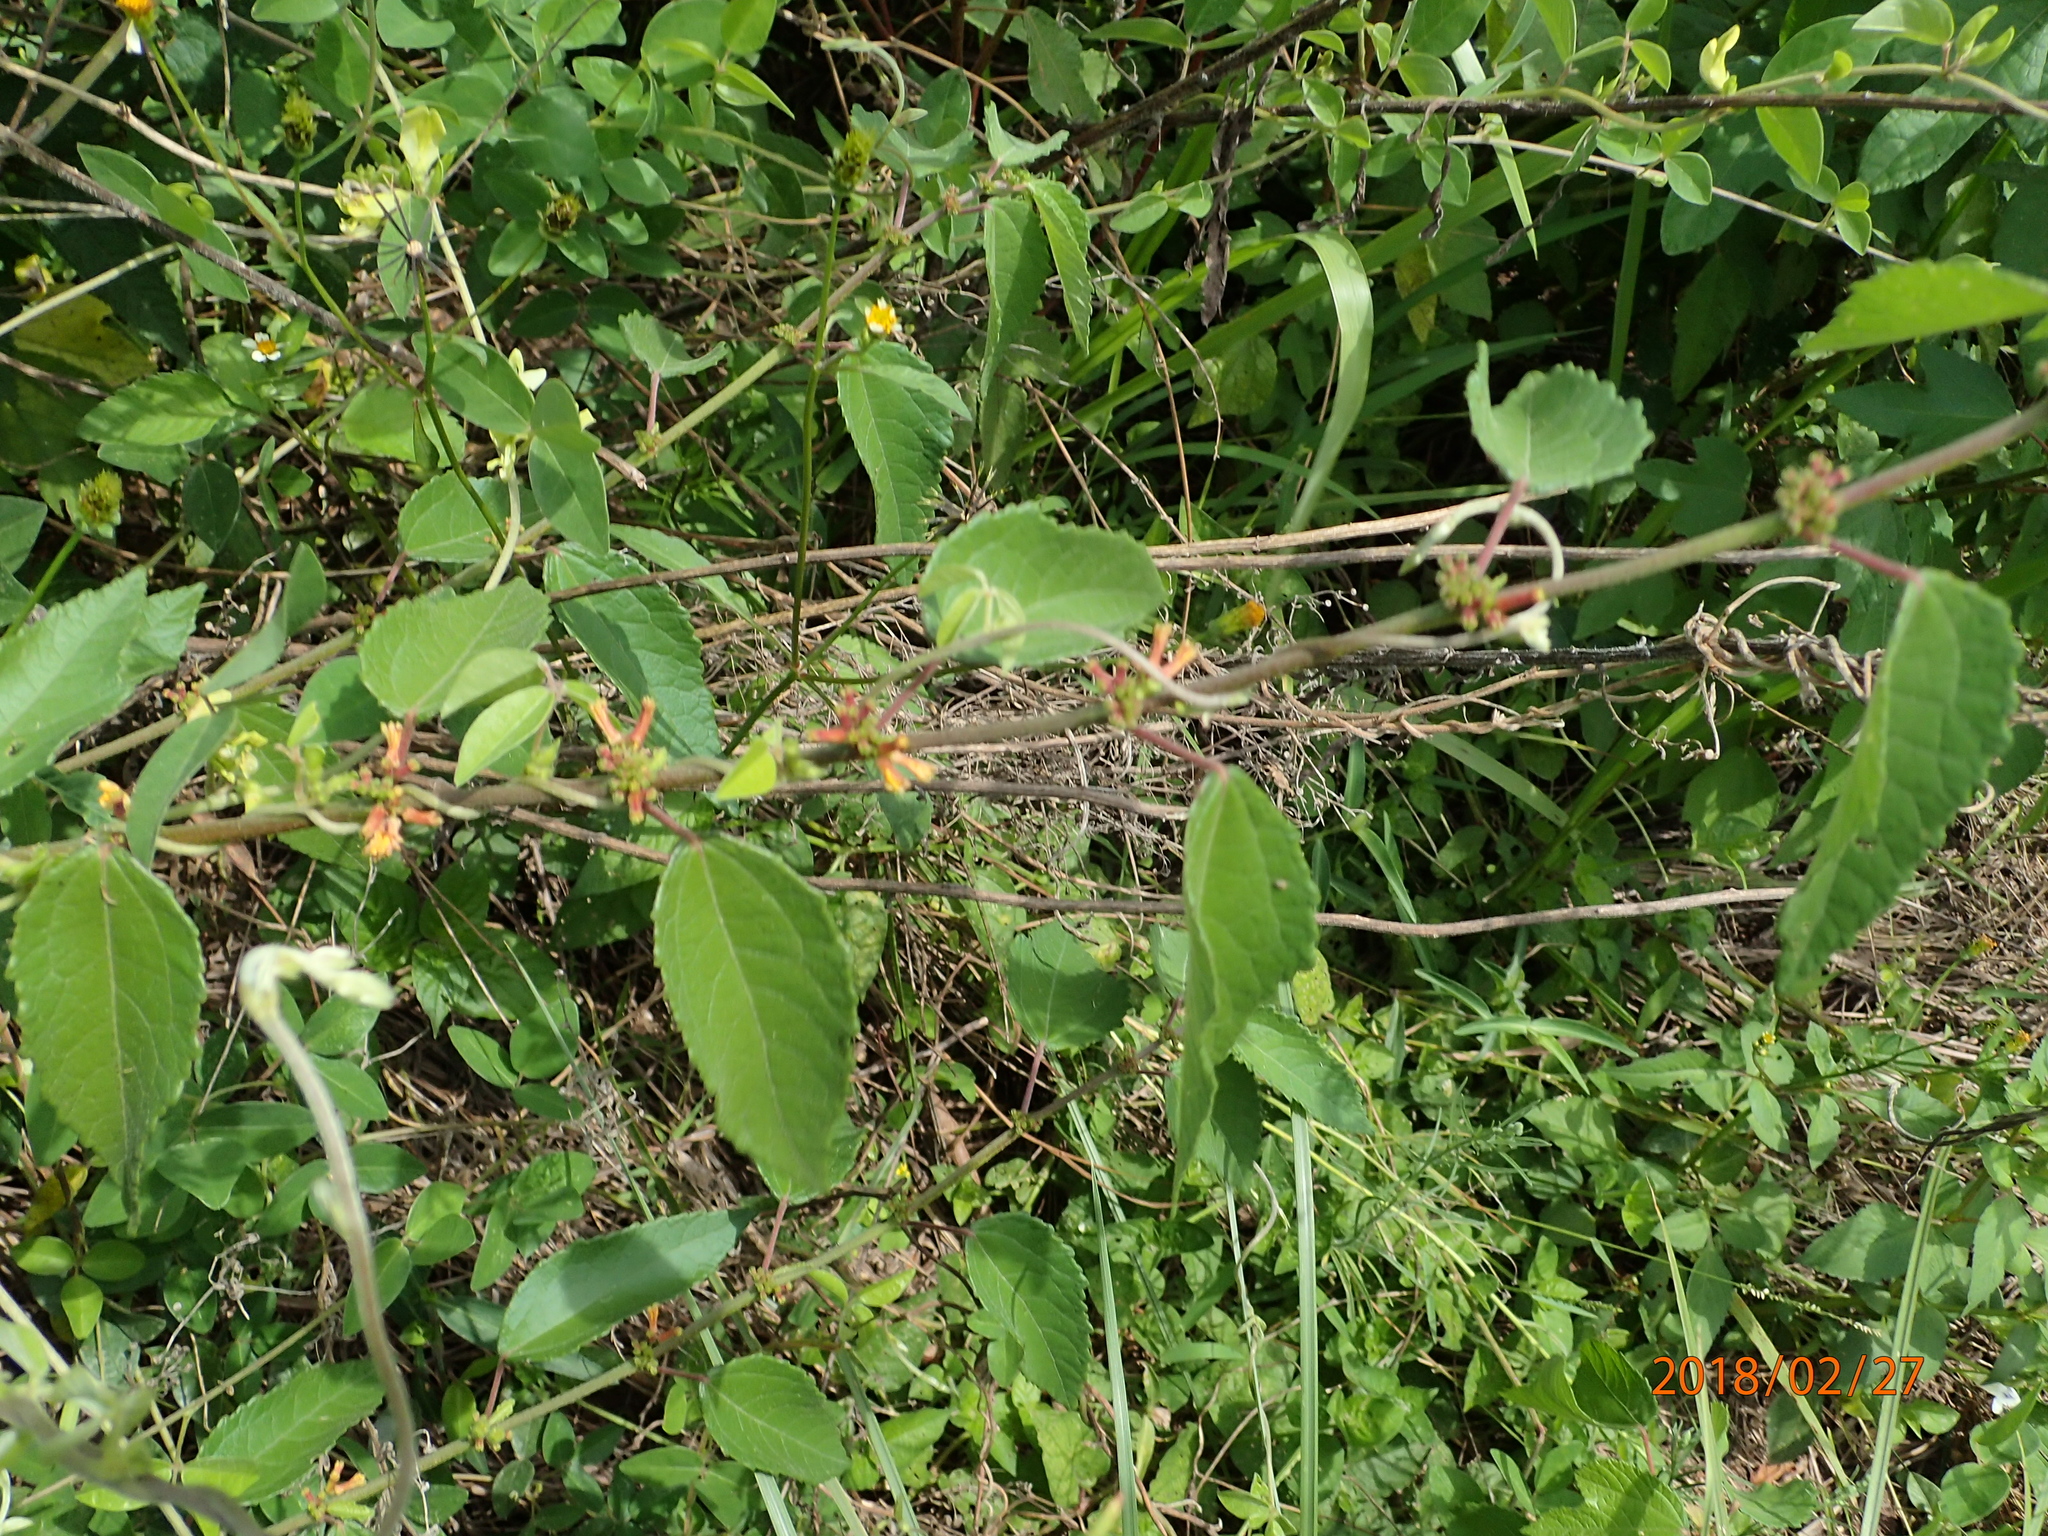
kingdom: Plantae
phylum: Tracheophyta
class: Magnoliopsida
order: Malvales
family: Malvaceae
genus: Triumfetta
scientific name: Triumfetta pilosa
